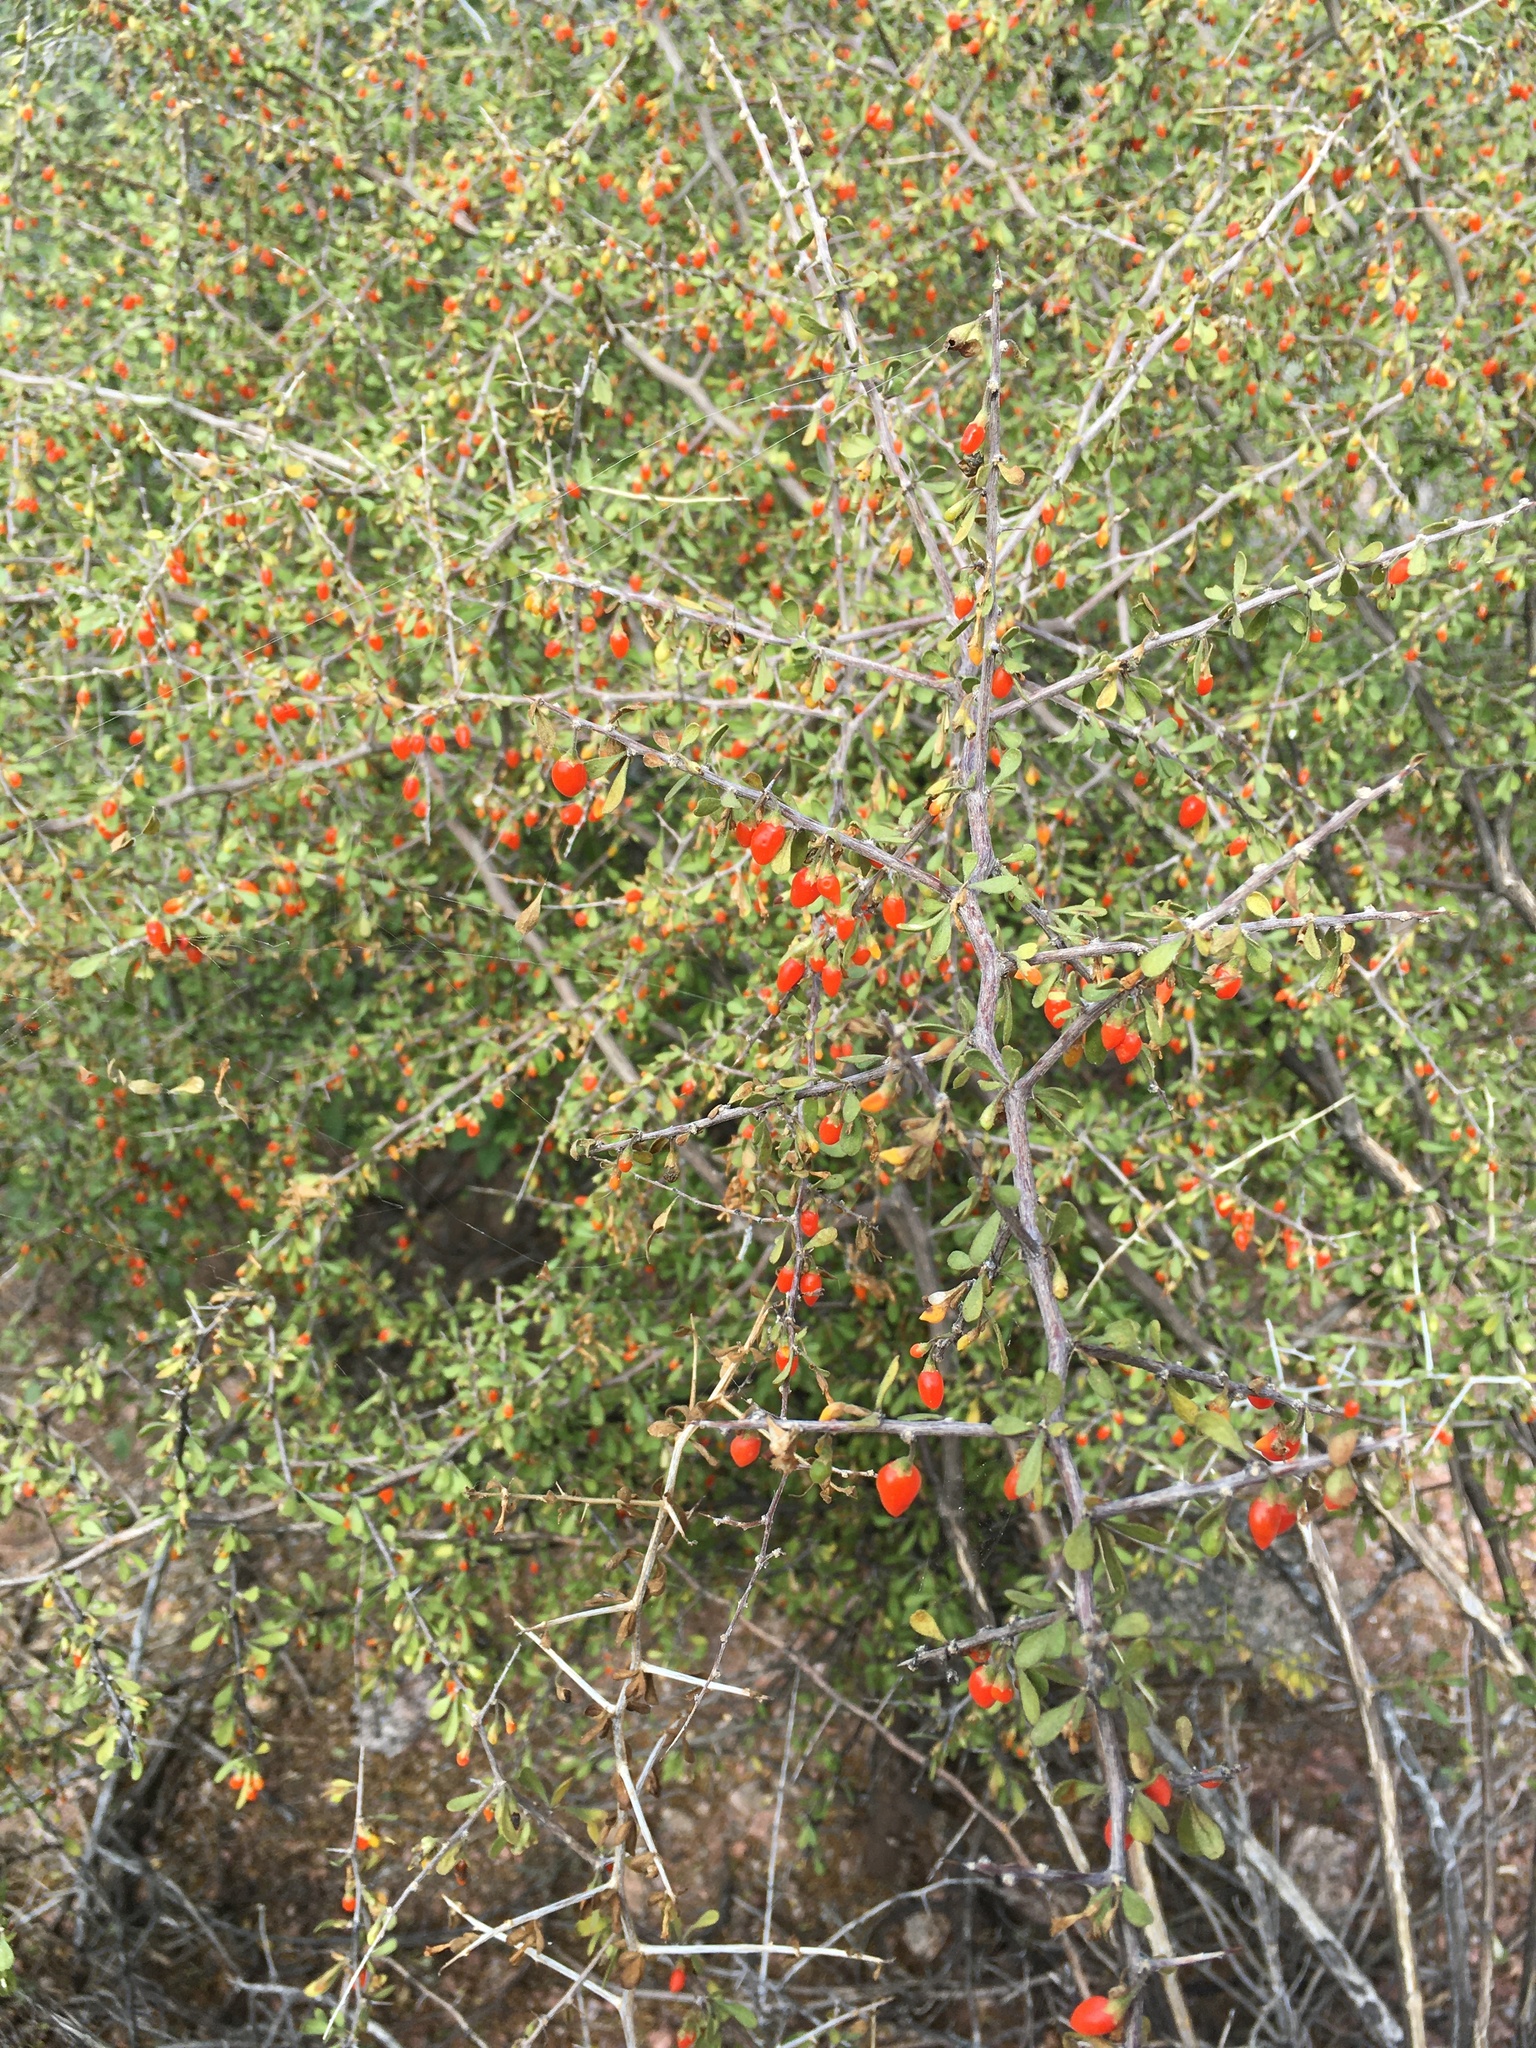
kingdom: Plantae
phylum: Tracheophyta
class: Magnoliopsida
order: Solanales
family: Solanaceae
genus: Lycium
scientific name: Lycium andersonii
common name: Water-jacket
